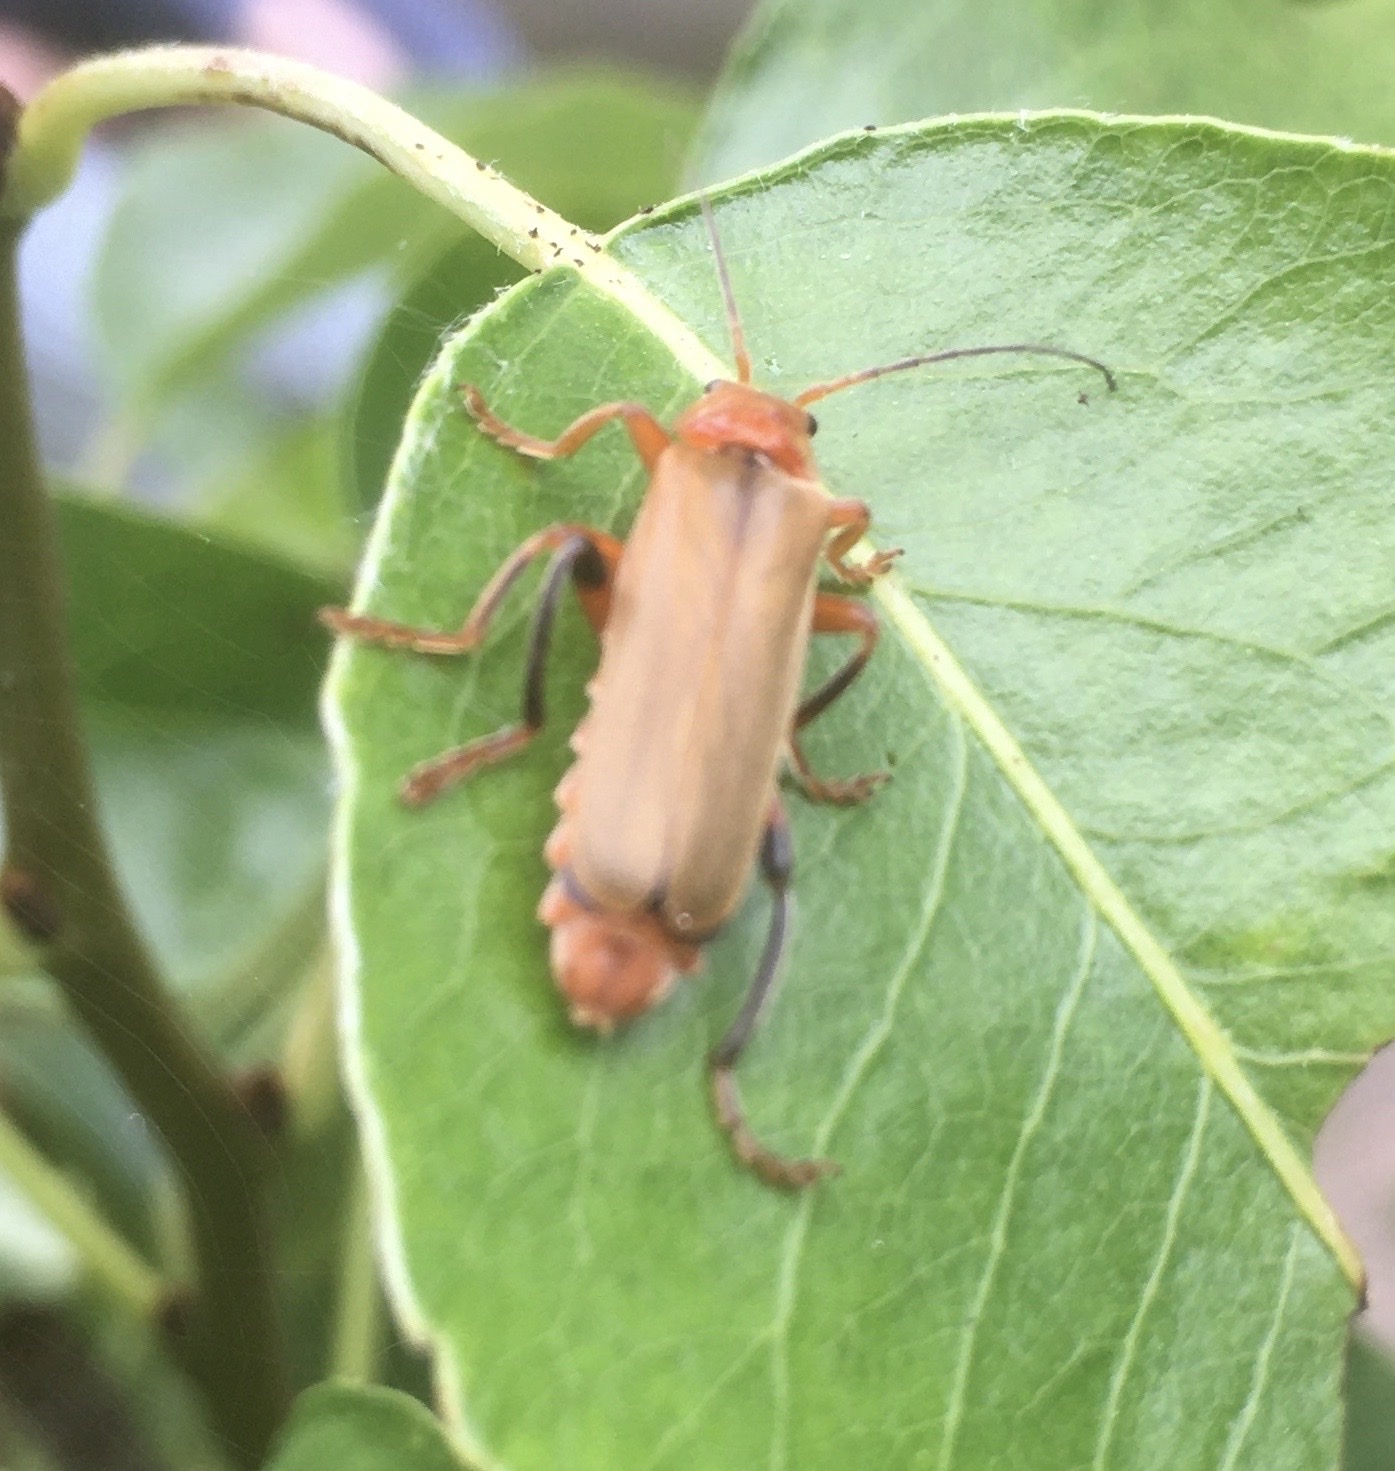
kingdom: Animalia
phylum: Arthropoda
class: Insecta
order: Coleoptera
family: Cantharidae
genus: Cantharis
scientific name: Cantharis livida
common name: Livid soldier beetle
